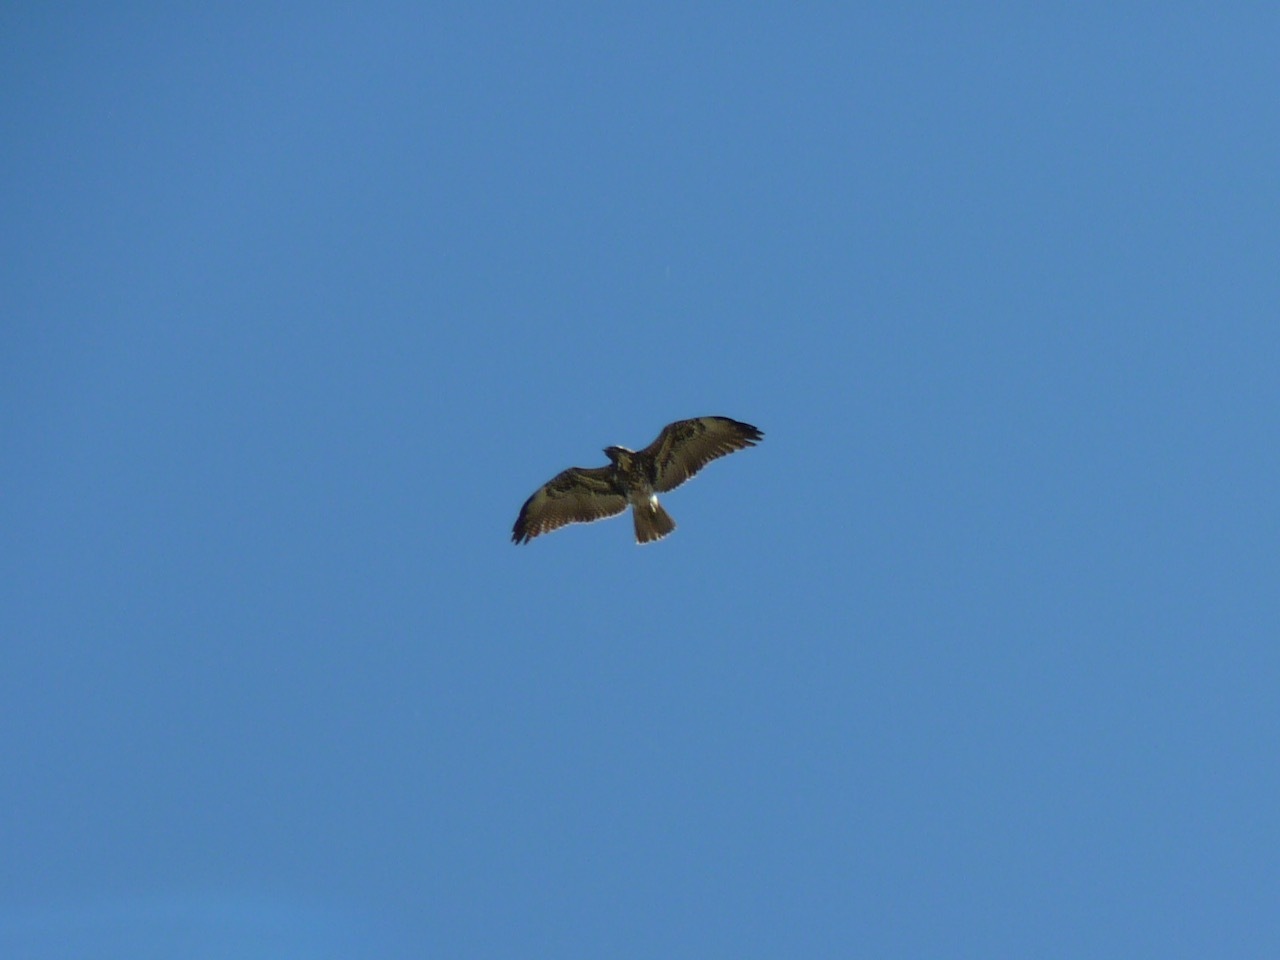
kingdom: Animalia
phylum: Chordata
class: Aves
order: Accipitriformes
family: Accipitridae
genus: Buteo
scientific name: Buteo albicaudatus
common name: White-tailed hawk
